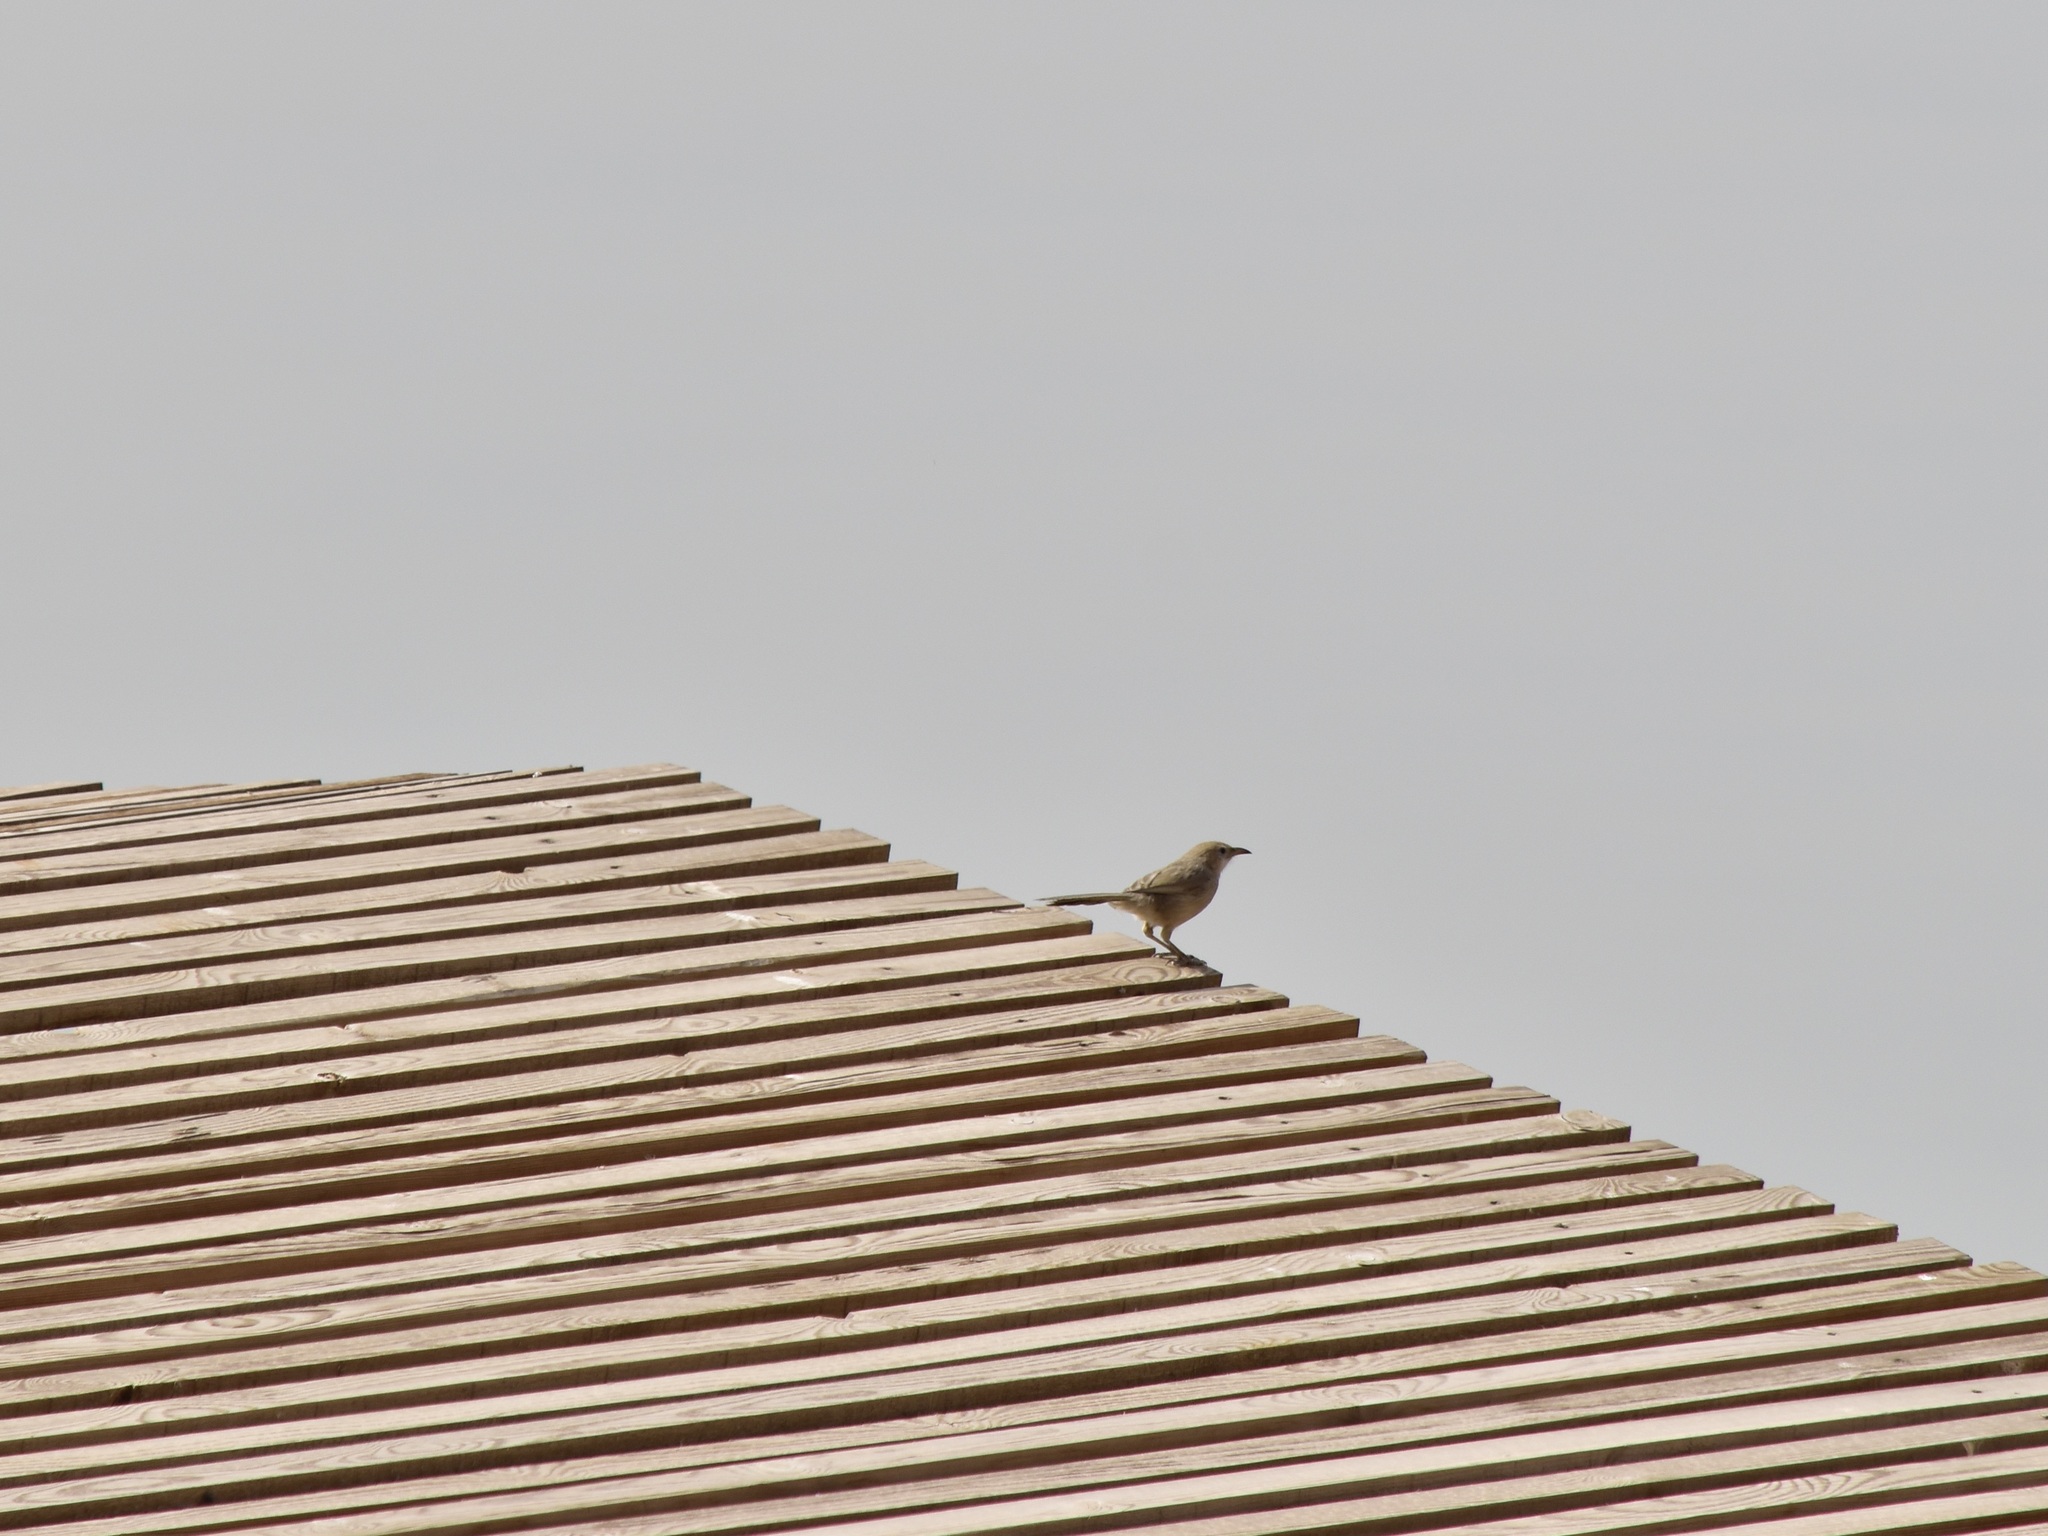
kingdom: Animalia
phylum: Chordata
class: Aves
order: Passeriformes
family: Leiothrichidae
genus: Turdoides
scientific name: Turdoides altirostris
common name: Iraq babbler
